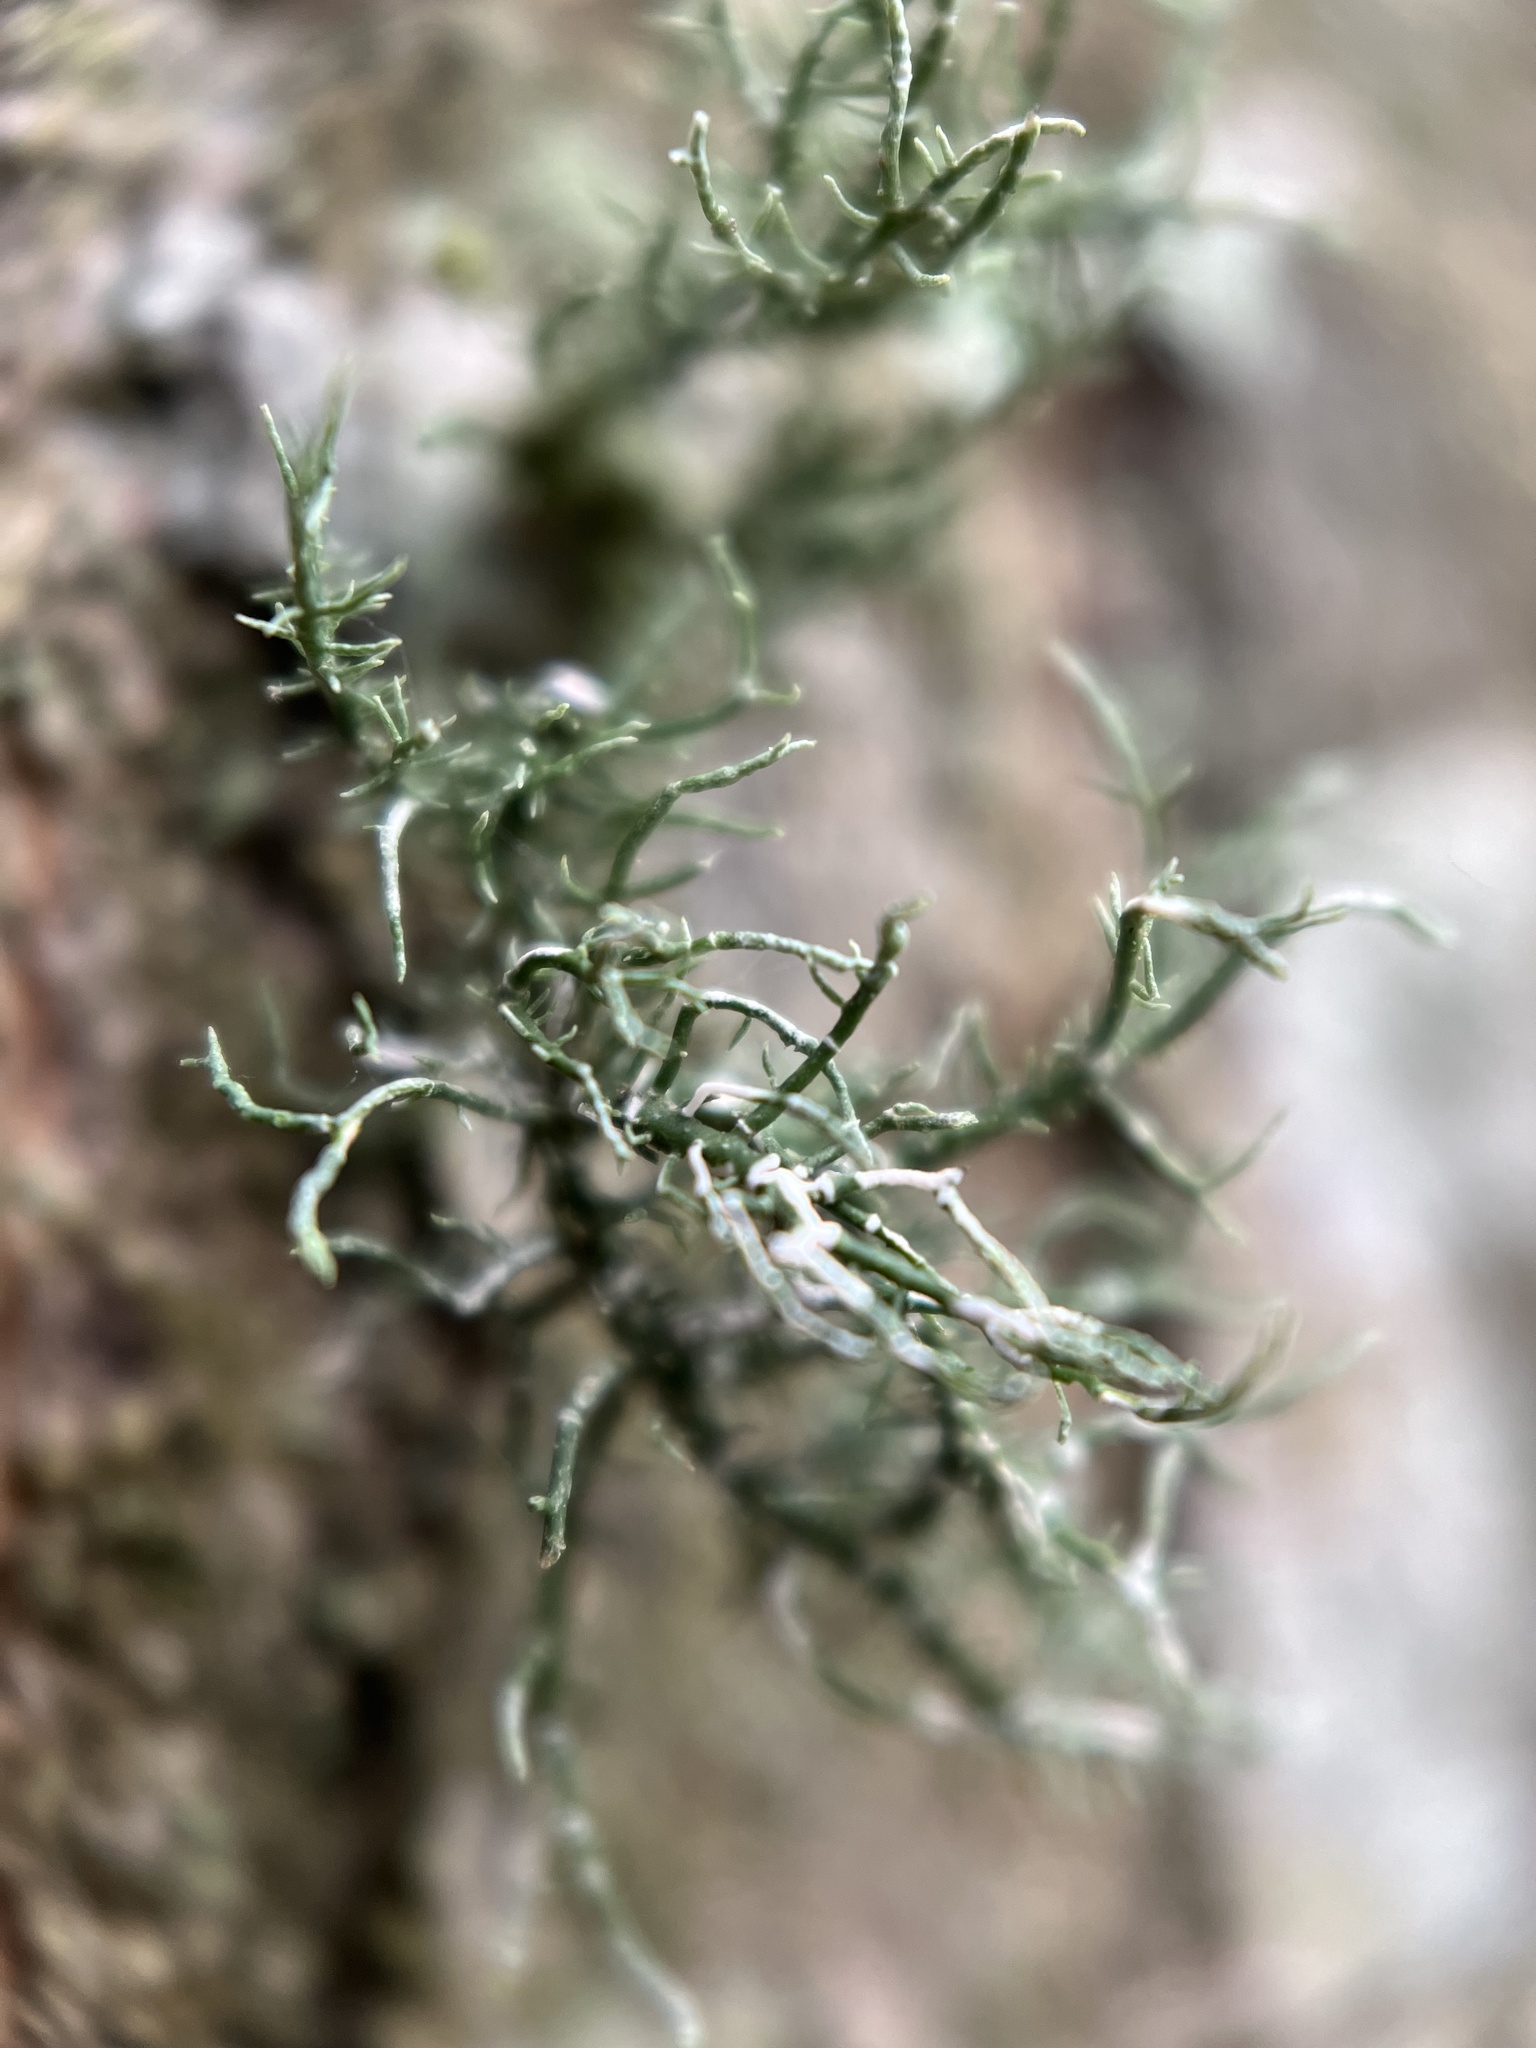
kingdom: Fungi
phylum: Ascomycota
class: Lecanoromycetes
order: Lecanorales
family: Parmeliaceae
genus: Usnea
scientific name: Usnea strigosa
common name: Bushy beard lichen
